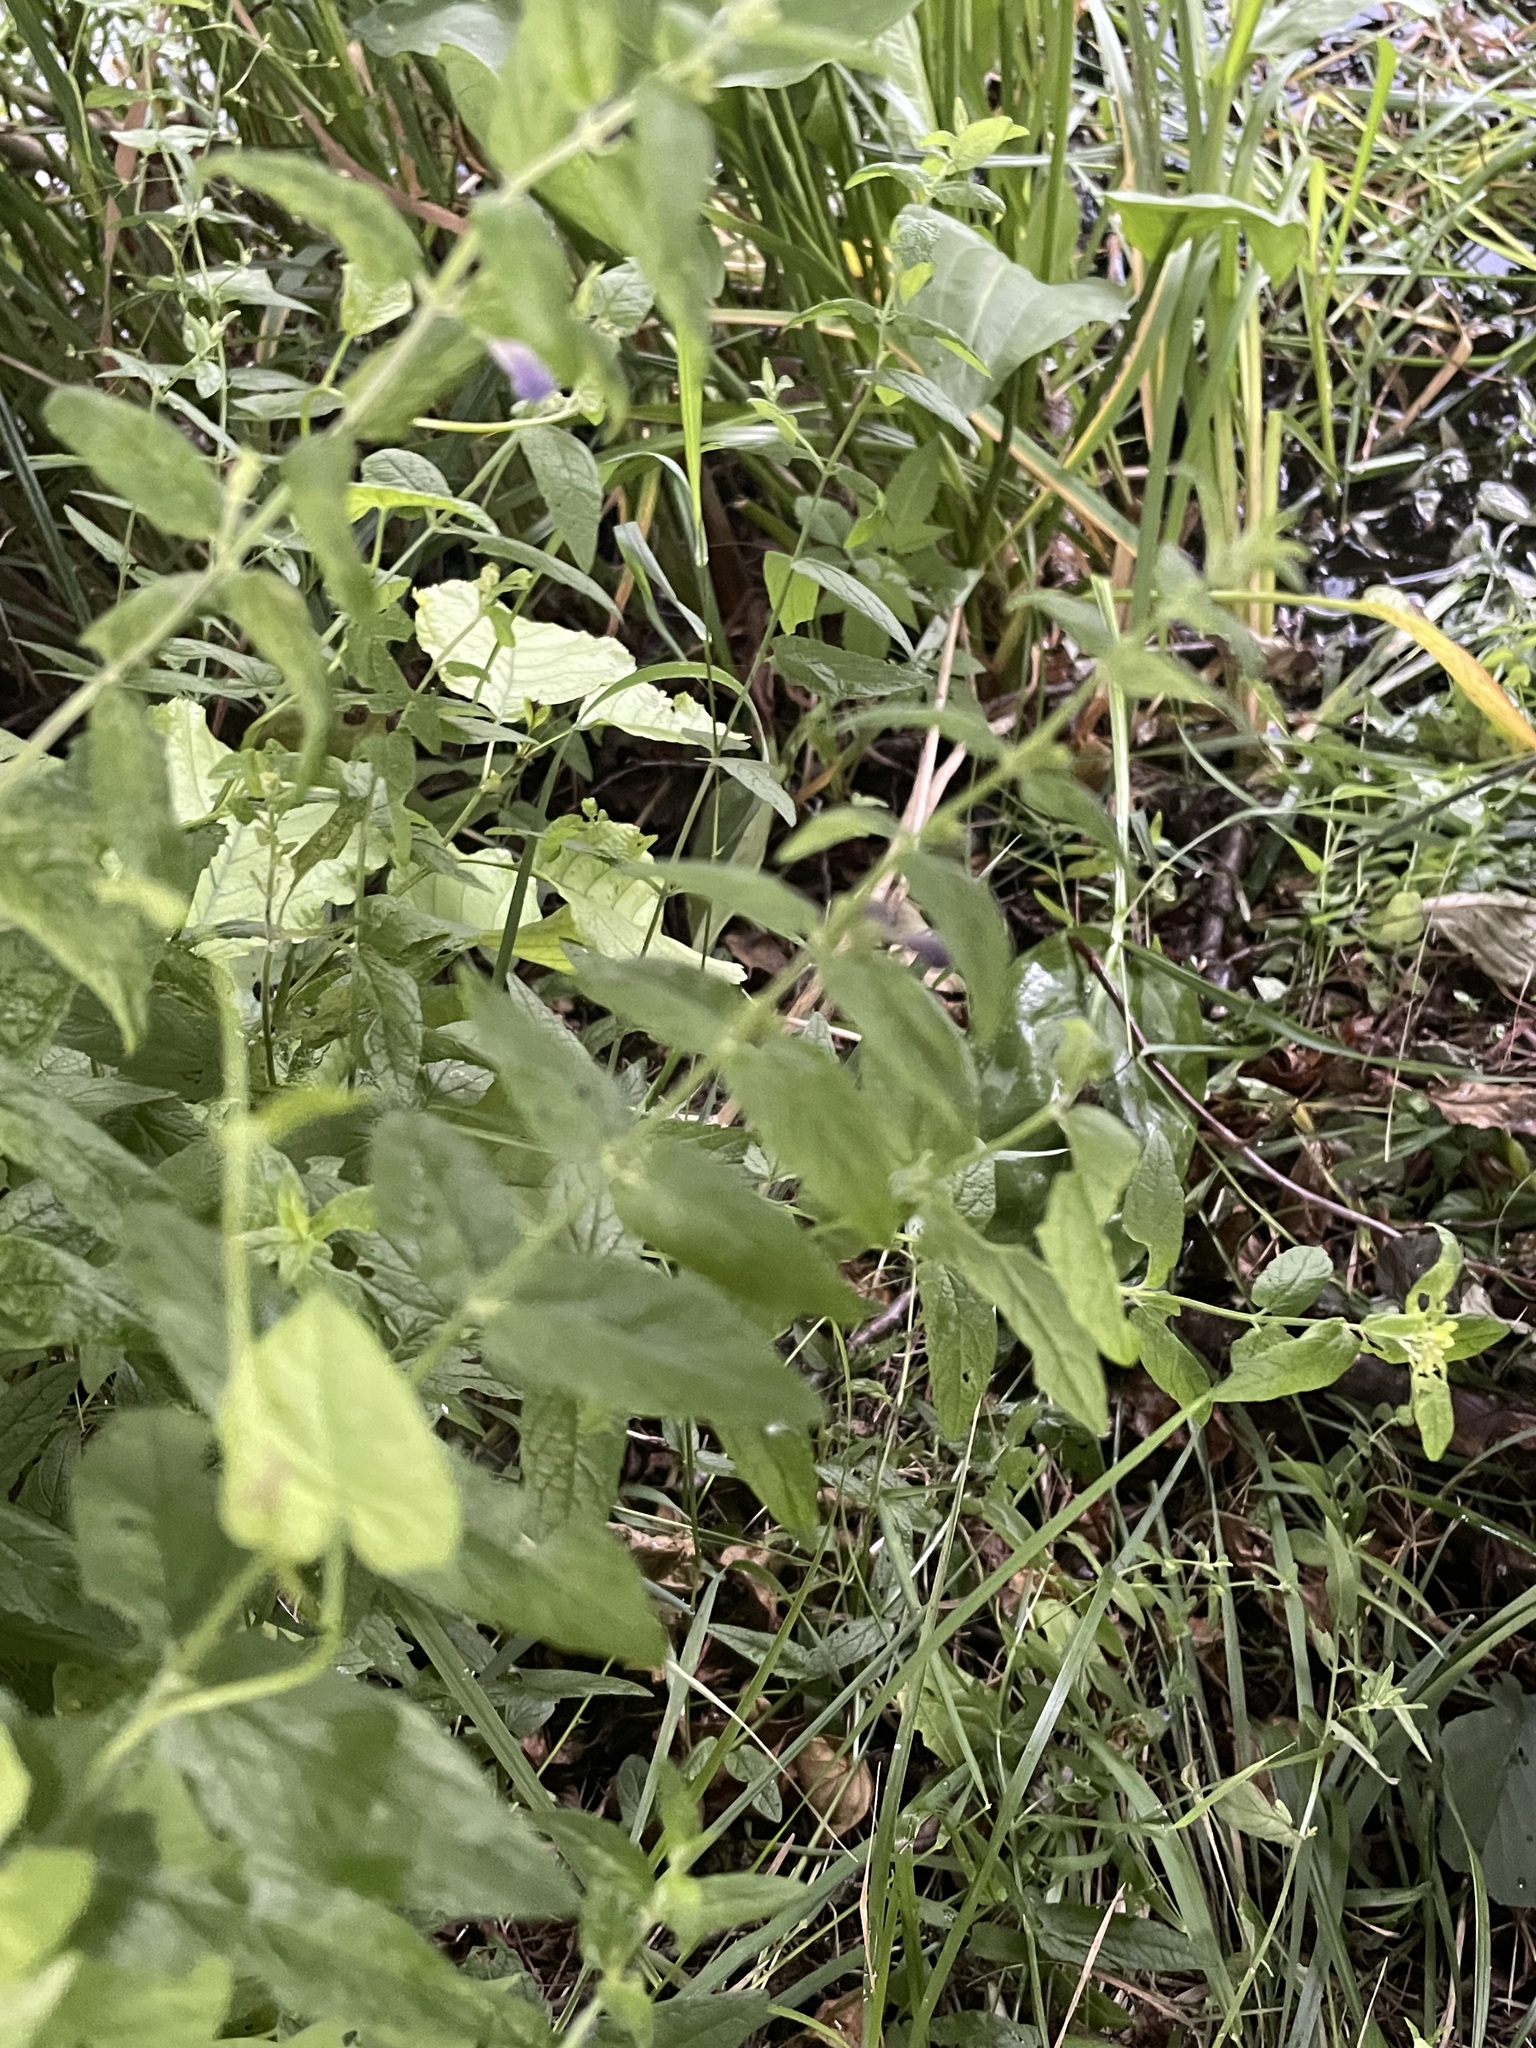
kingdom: Plantae
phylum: Tracheophyta
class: Magnoliopsida
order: Lamiales
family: Lamiaceae
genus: Scutellaria
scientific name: Scutellaria galericulata
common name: Skullcap
